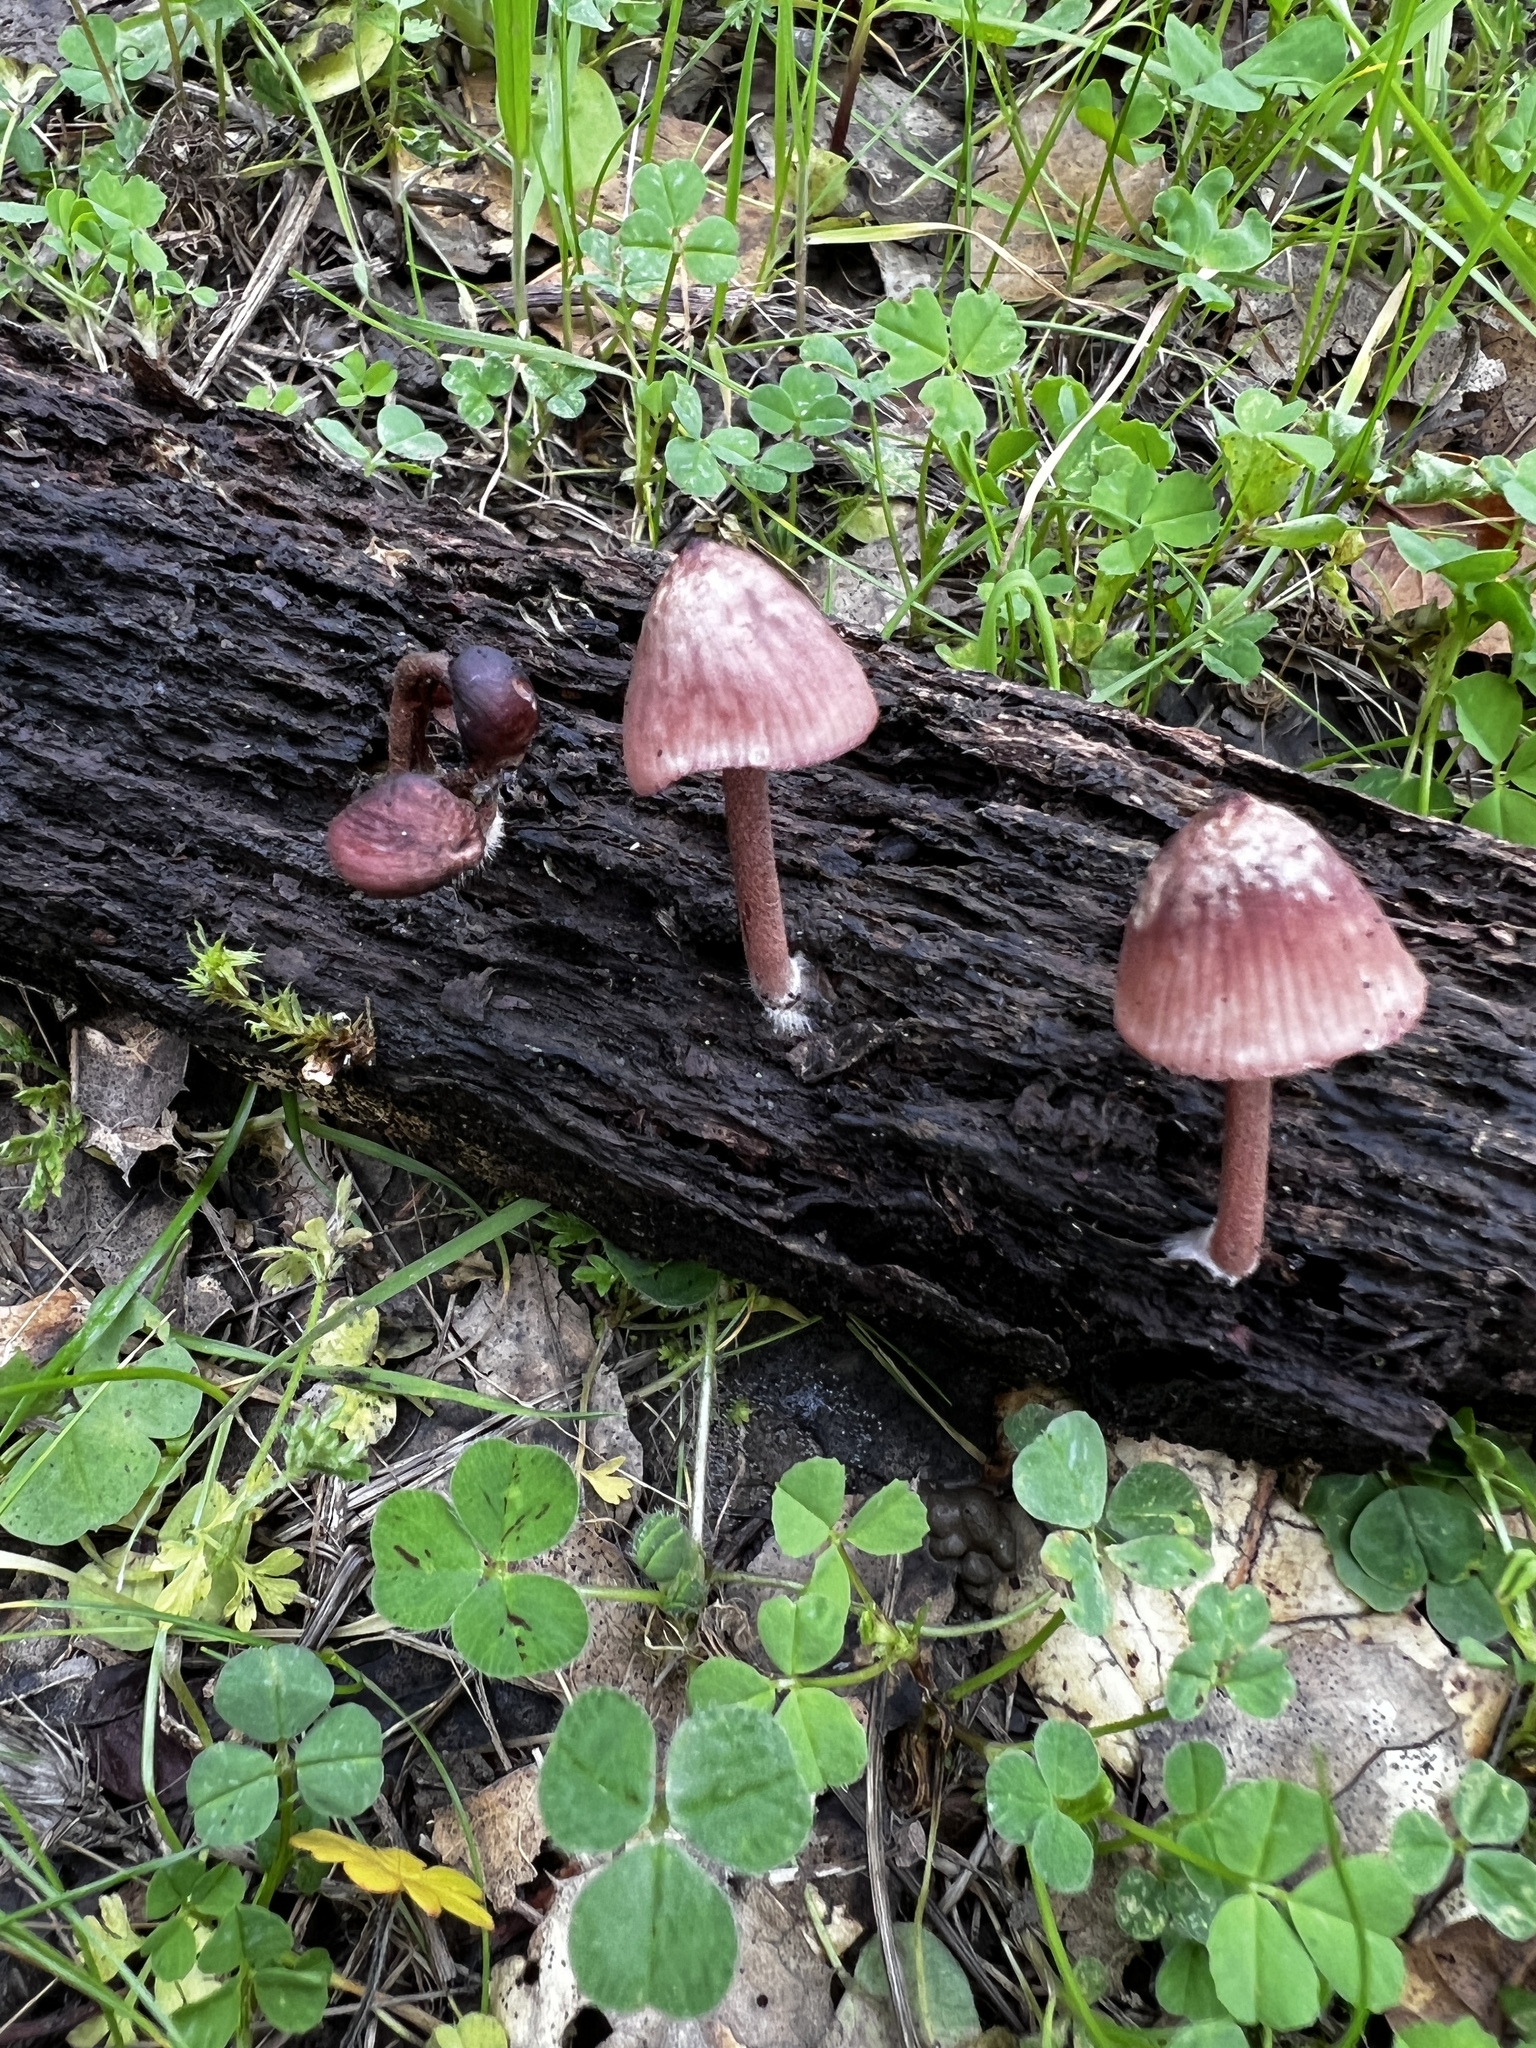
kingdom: Fungi
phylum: Basidiomycota
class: Agaricomycetes
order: Agaricales
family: Mycenaceae
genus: Mycena
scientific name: Mycena haematopus
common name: Burgundydrop bonnet
